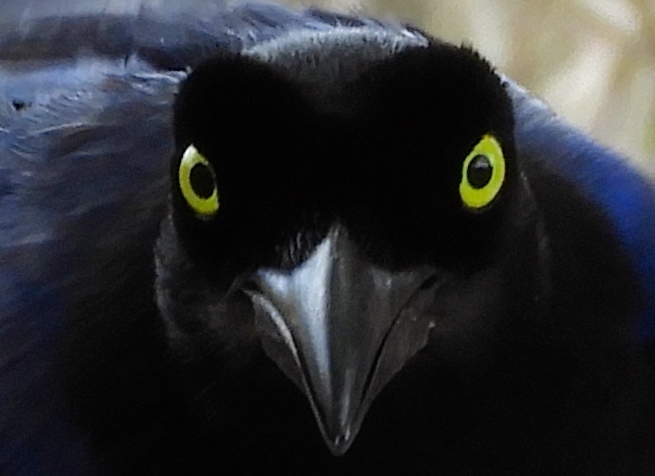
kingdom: Animalia
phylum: Chordata
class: Aves
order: Passeriformes
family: Corvidae
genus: Cyanocorax
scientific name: Cyanocorax beecheii
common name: Purplish-backed jay
